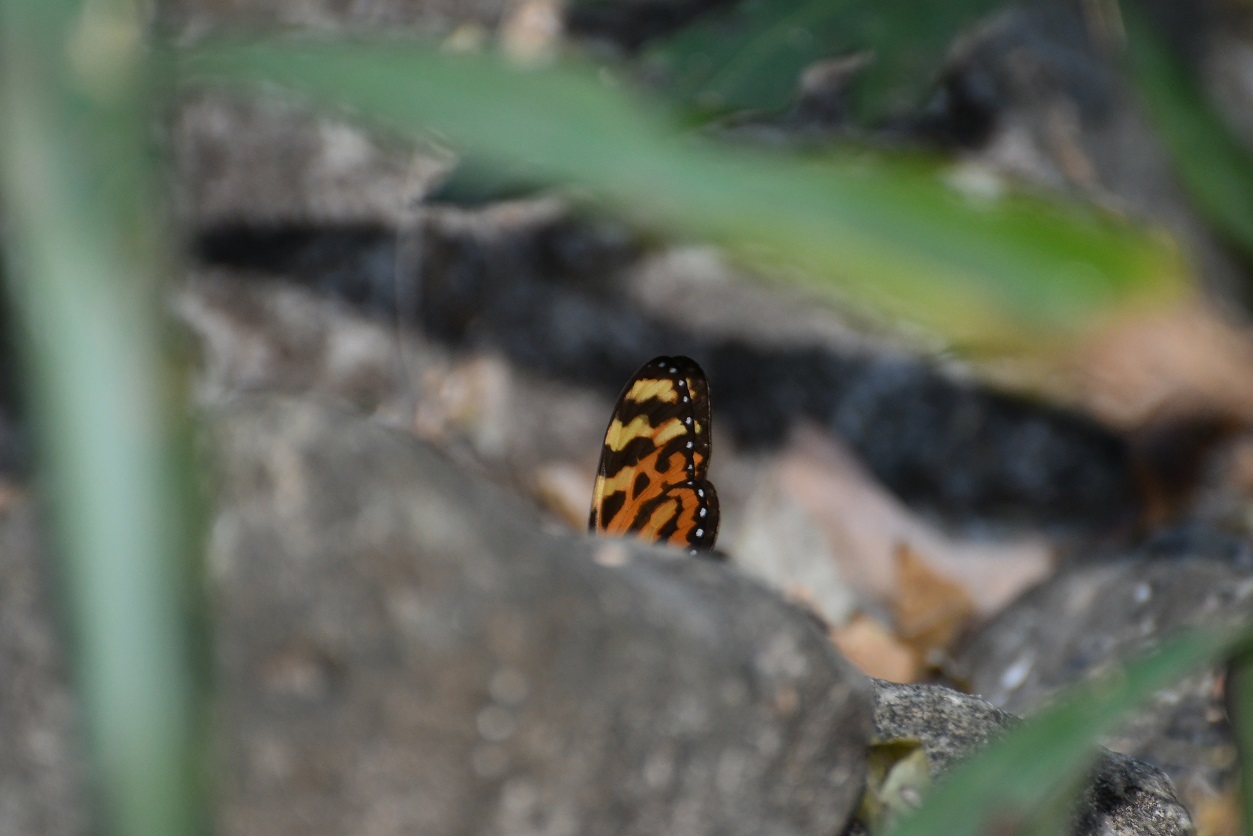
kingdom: Animalia
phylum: Arthropoda
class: Insecta
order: Lepidoptera
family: Nymphalidae
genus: Mechanitis
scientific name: Mechanitis lysimnia
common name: Lysimnia tigerwing
